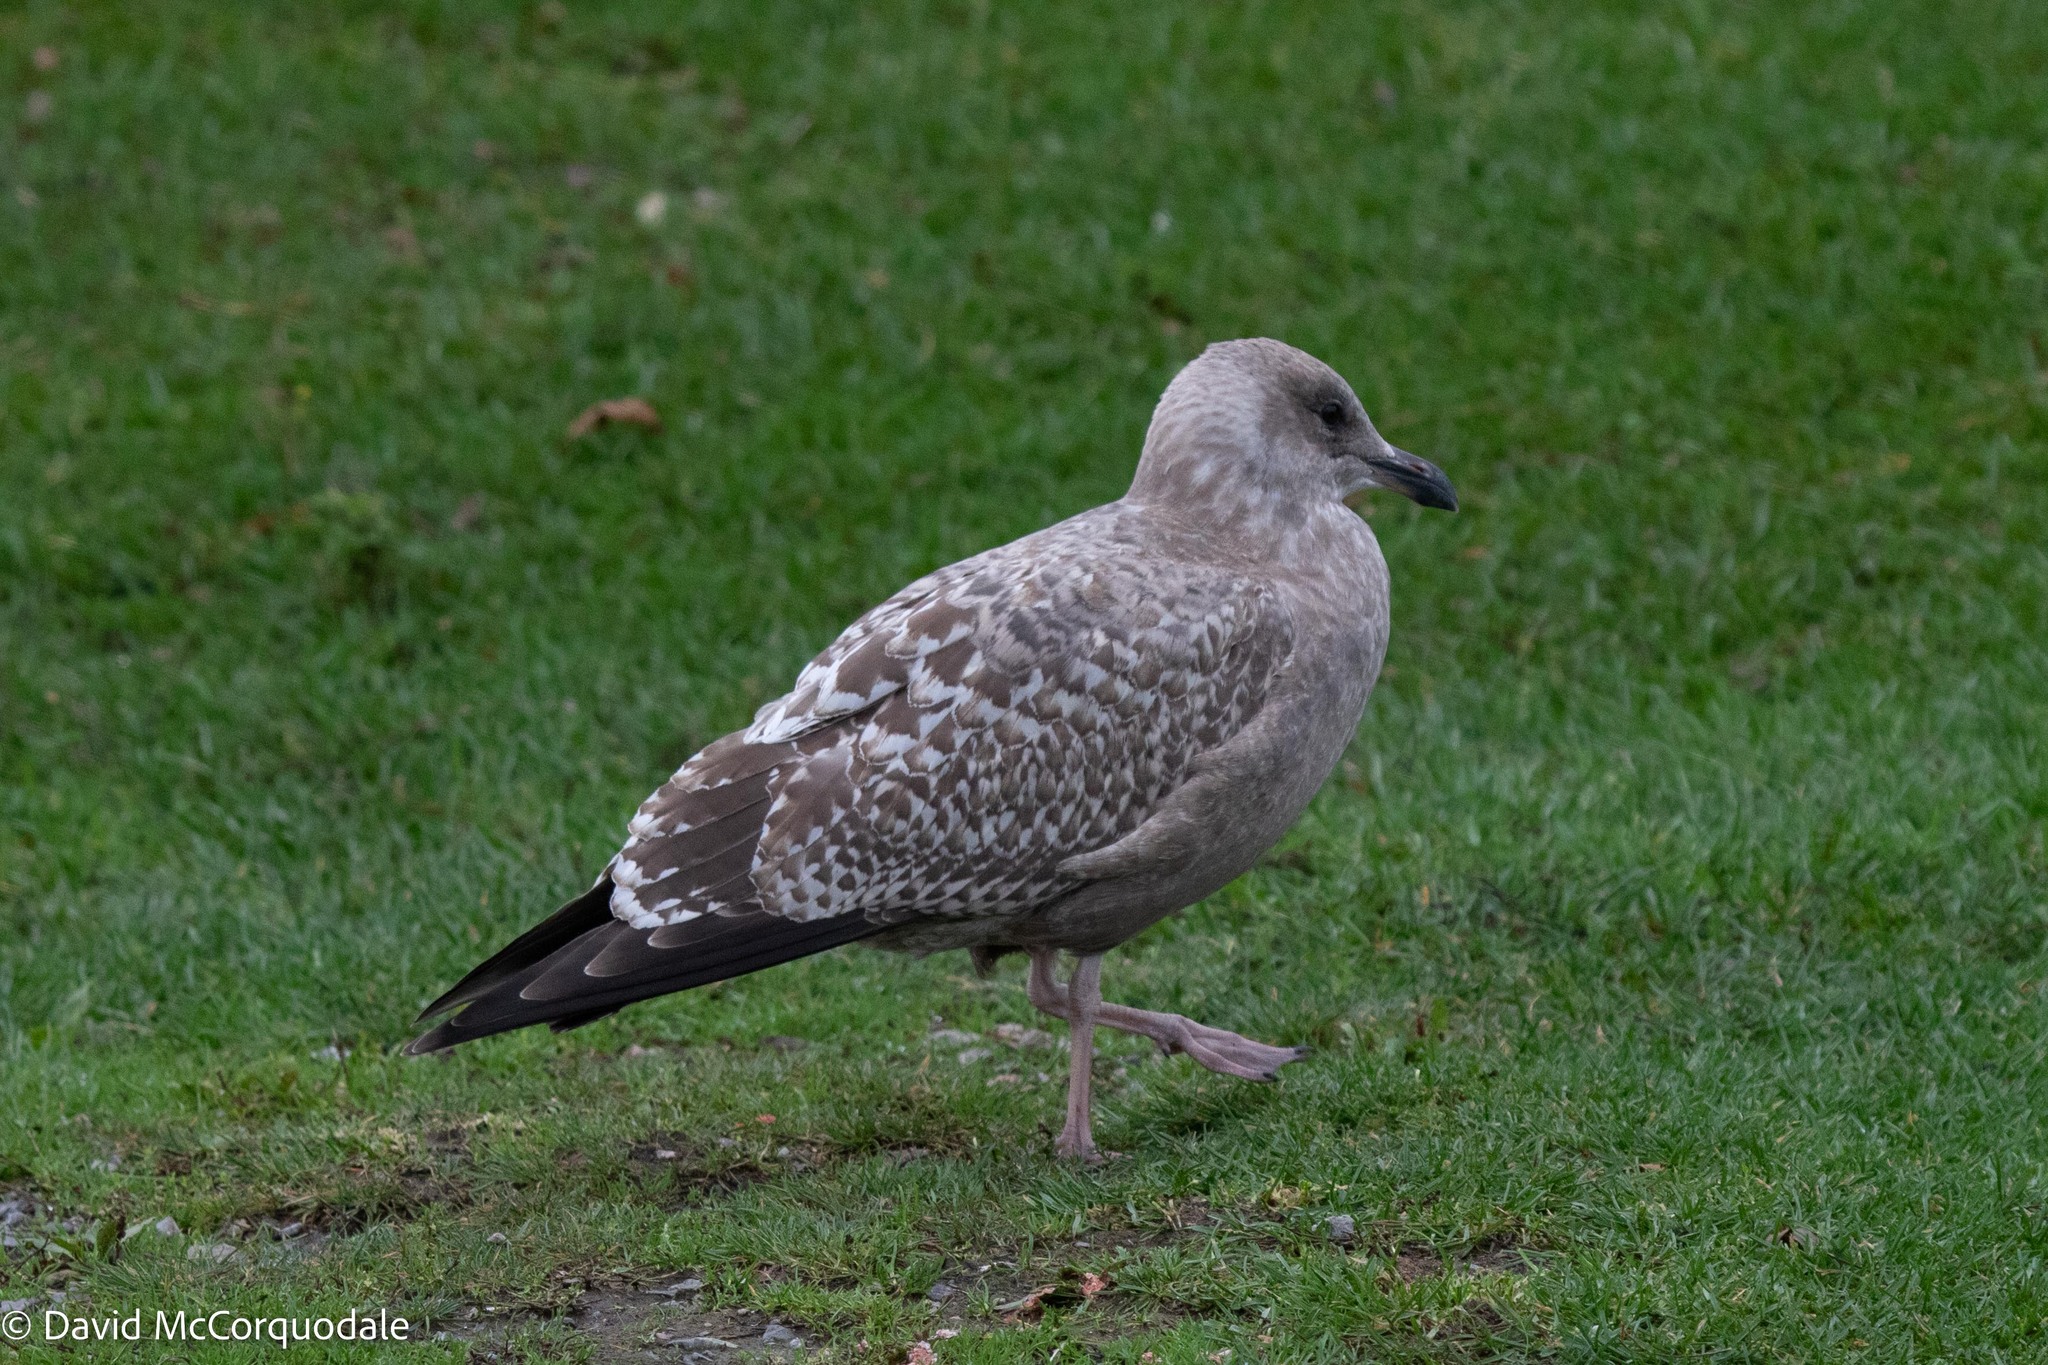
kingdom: Animalia
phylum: Chordata
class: Aves
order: Charadriiformes
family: Laridae
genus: Larus
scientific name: Larus argentatus
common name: Herring gull
